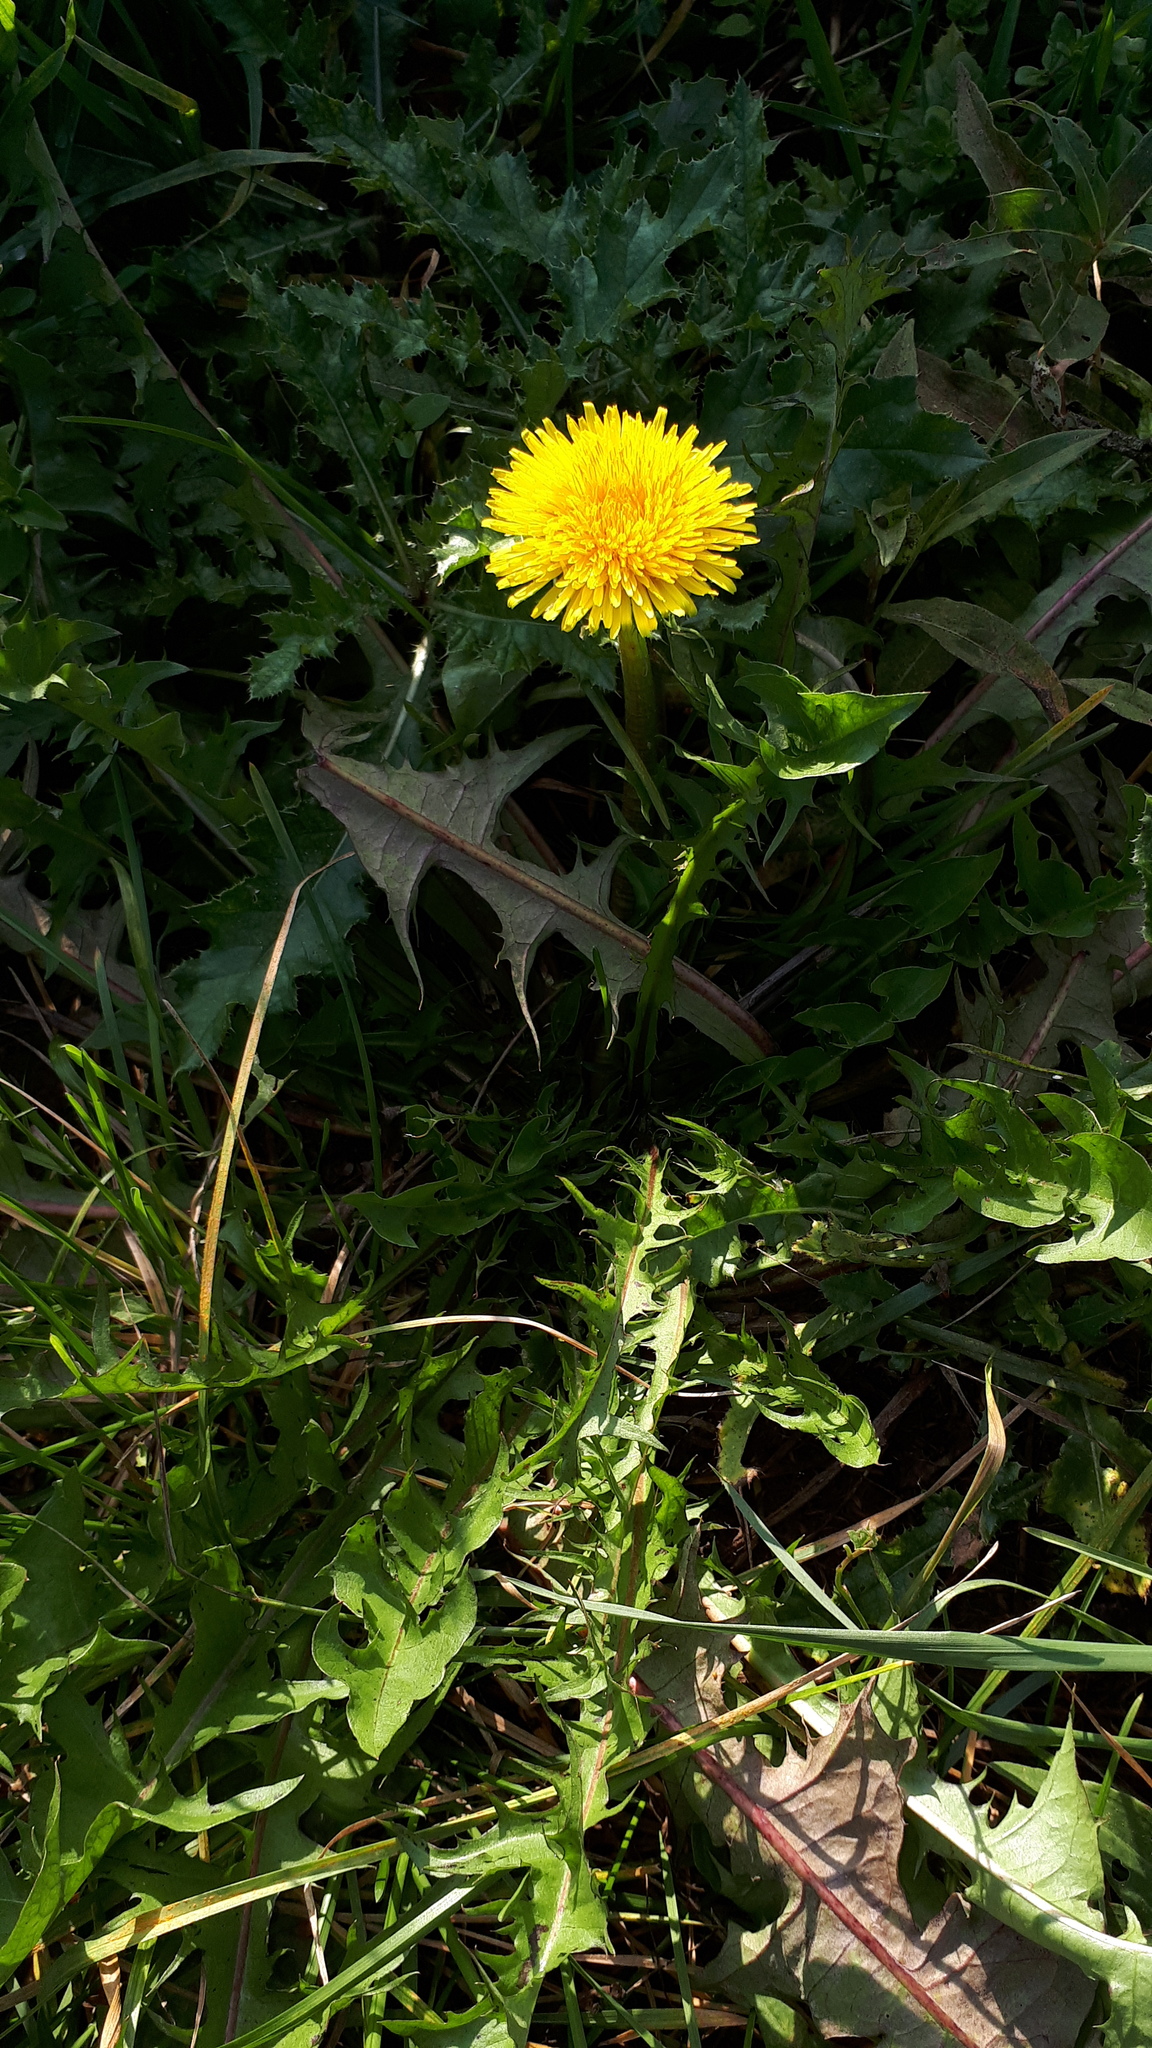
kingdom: Plantae
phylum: Tracheophyta
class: Magnoliopsida
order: Asterales
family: Asteraceae
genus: Taraxacum
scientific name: Taraxacum officinale
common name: Common dandelion
